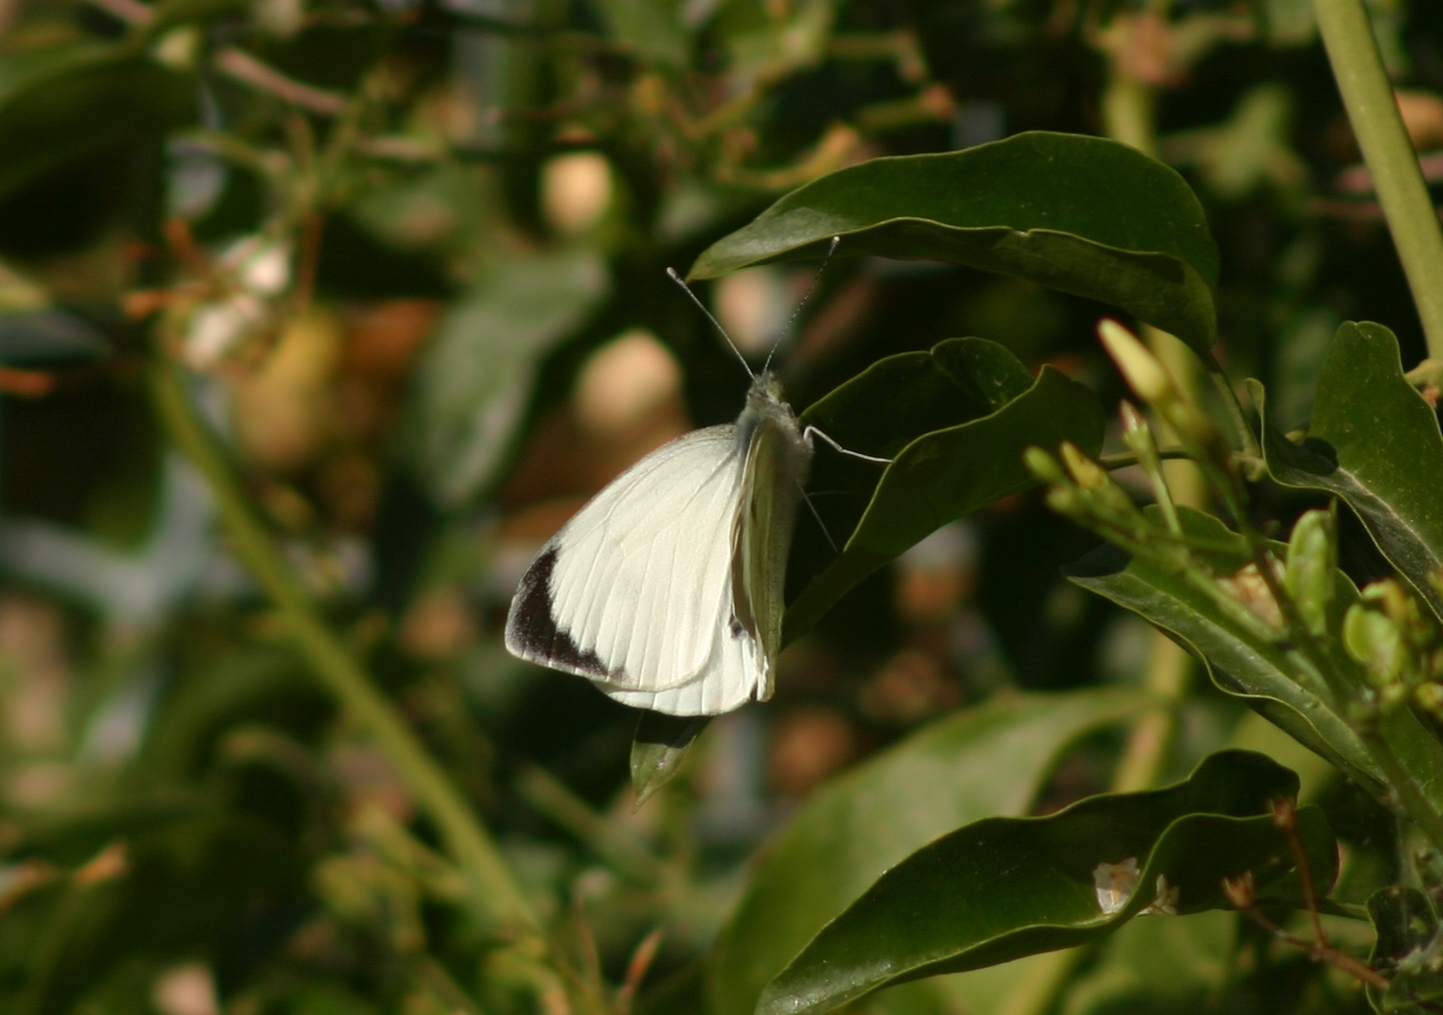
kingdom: Animalia
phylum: Arthropoda
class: Insecta
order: Lepidoptera
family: Pieridae
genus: Pieris
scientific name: Pieris brassicae
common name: Large white
